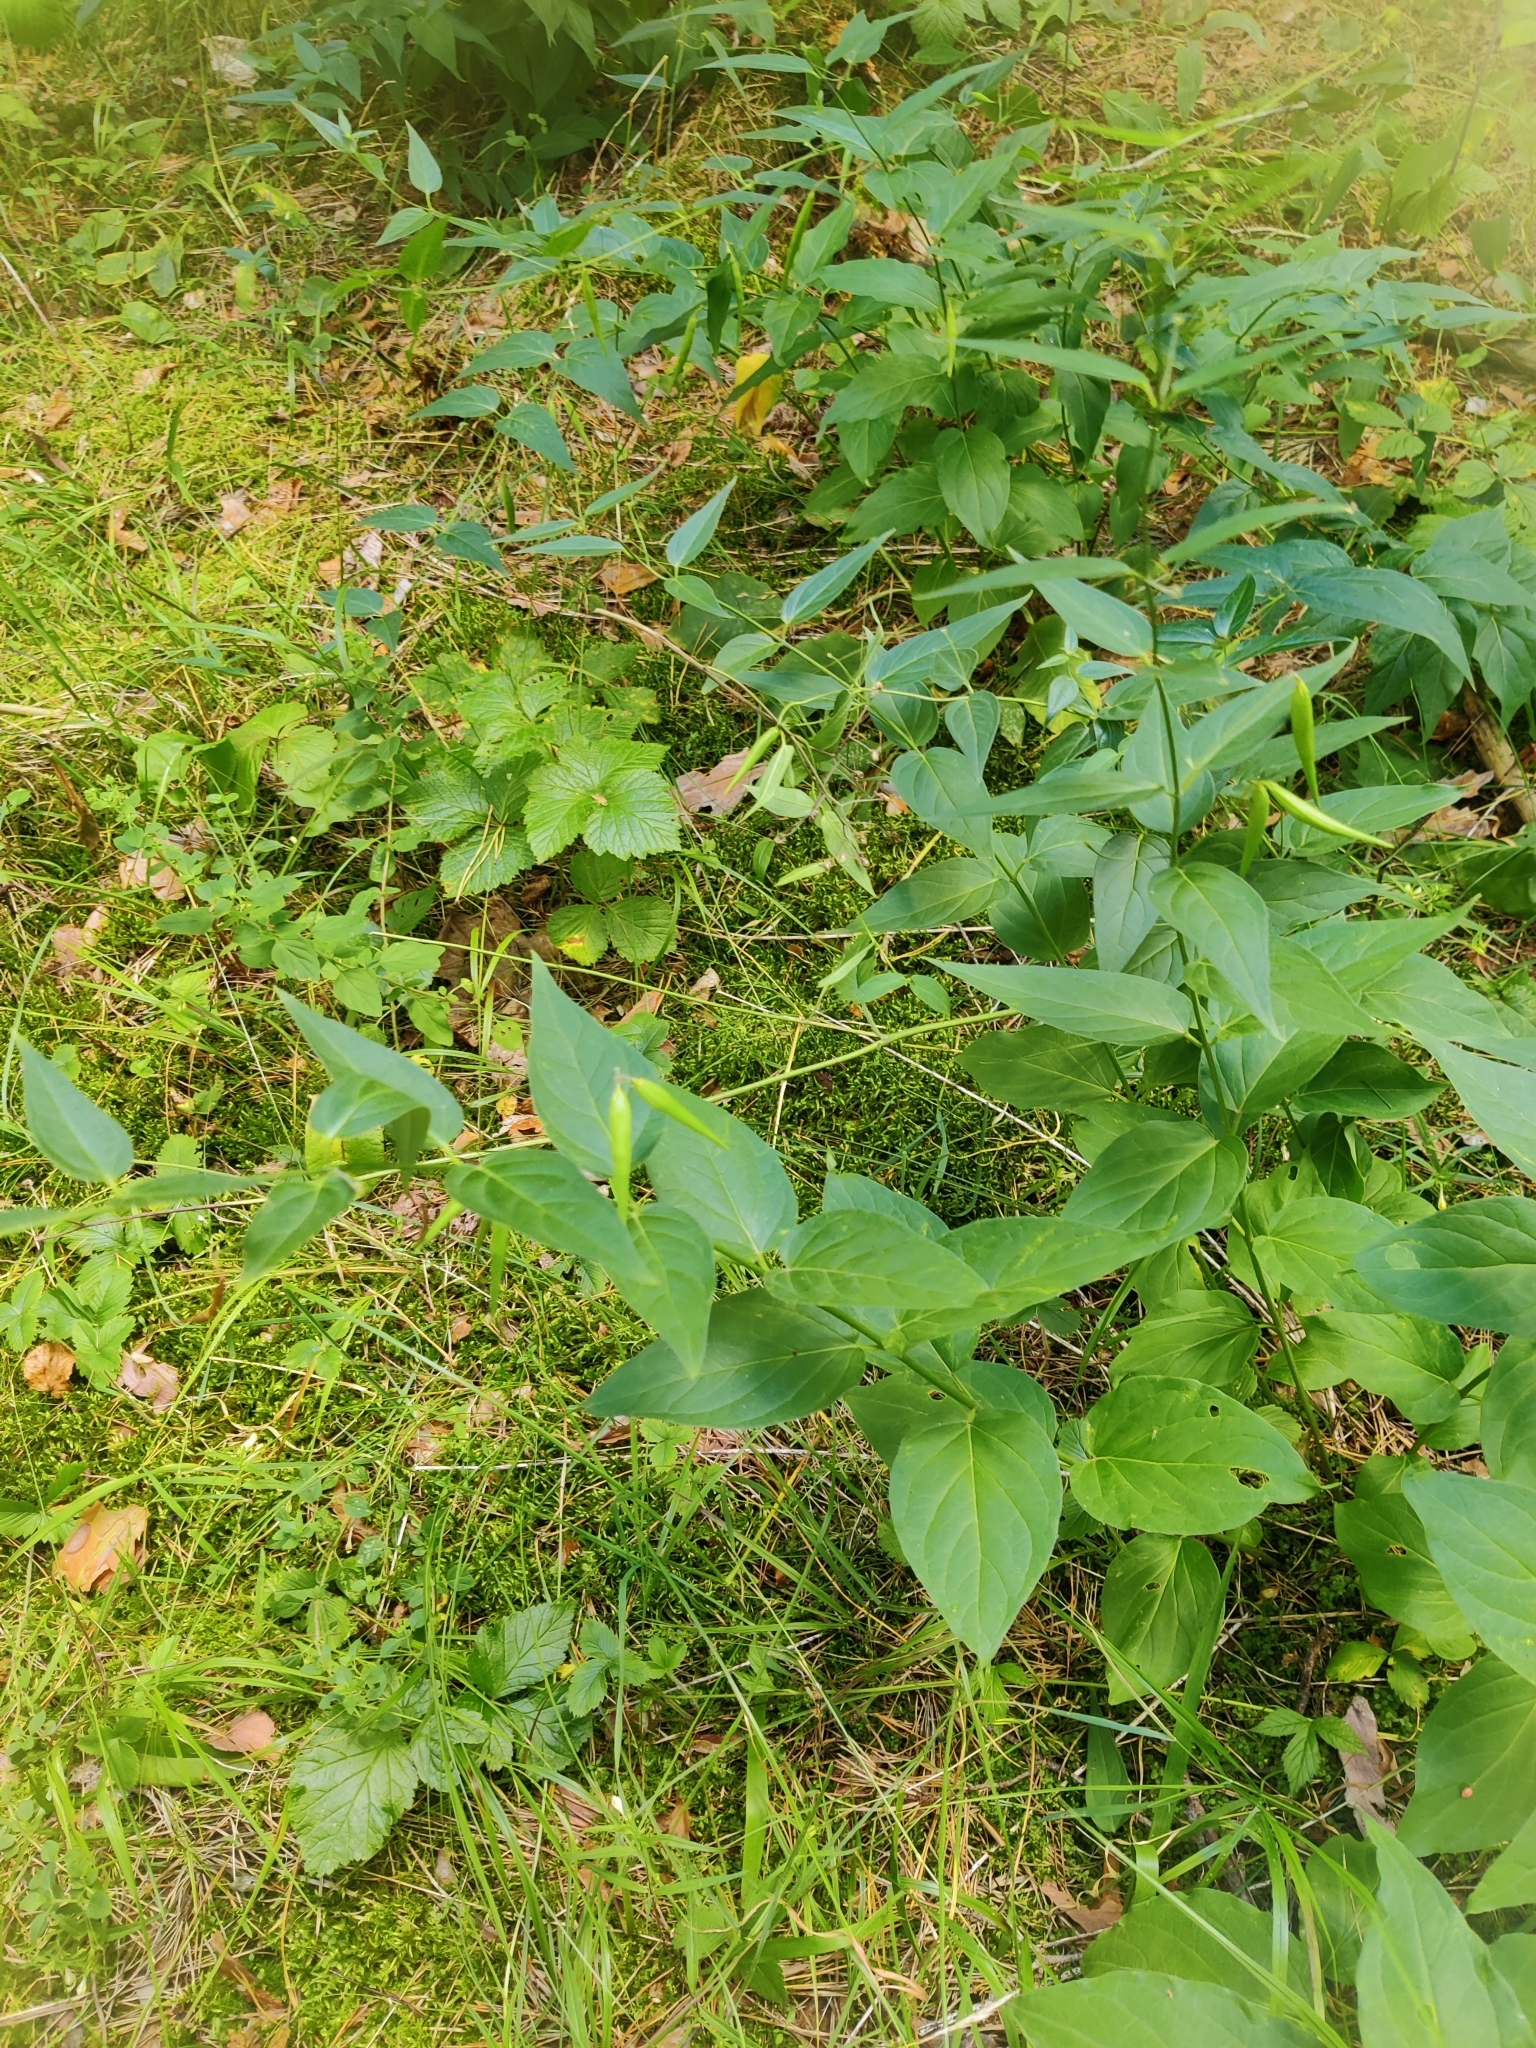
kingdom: Plantae
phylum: Tracheophyta
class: Magnoliopsida
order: Gentianales
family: Apocynaceae
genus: Vincetoxicum
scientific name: Vincetoxicum hirundinaria
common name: White swallowwort
